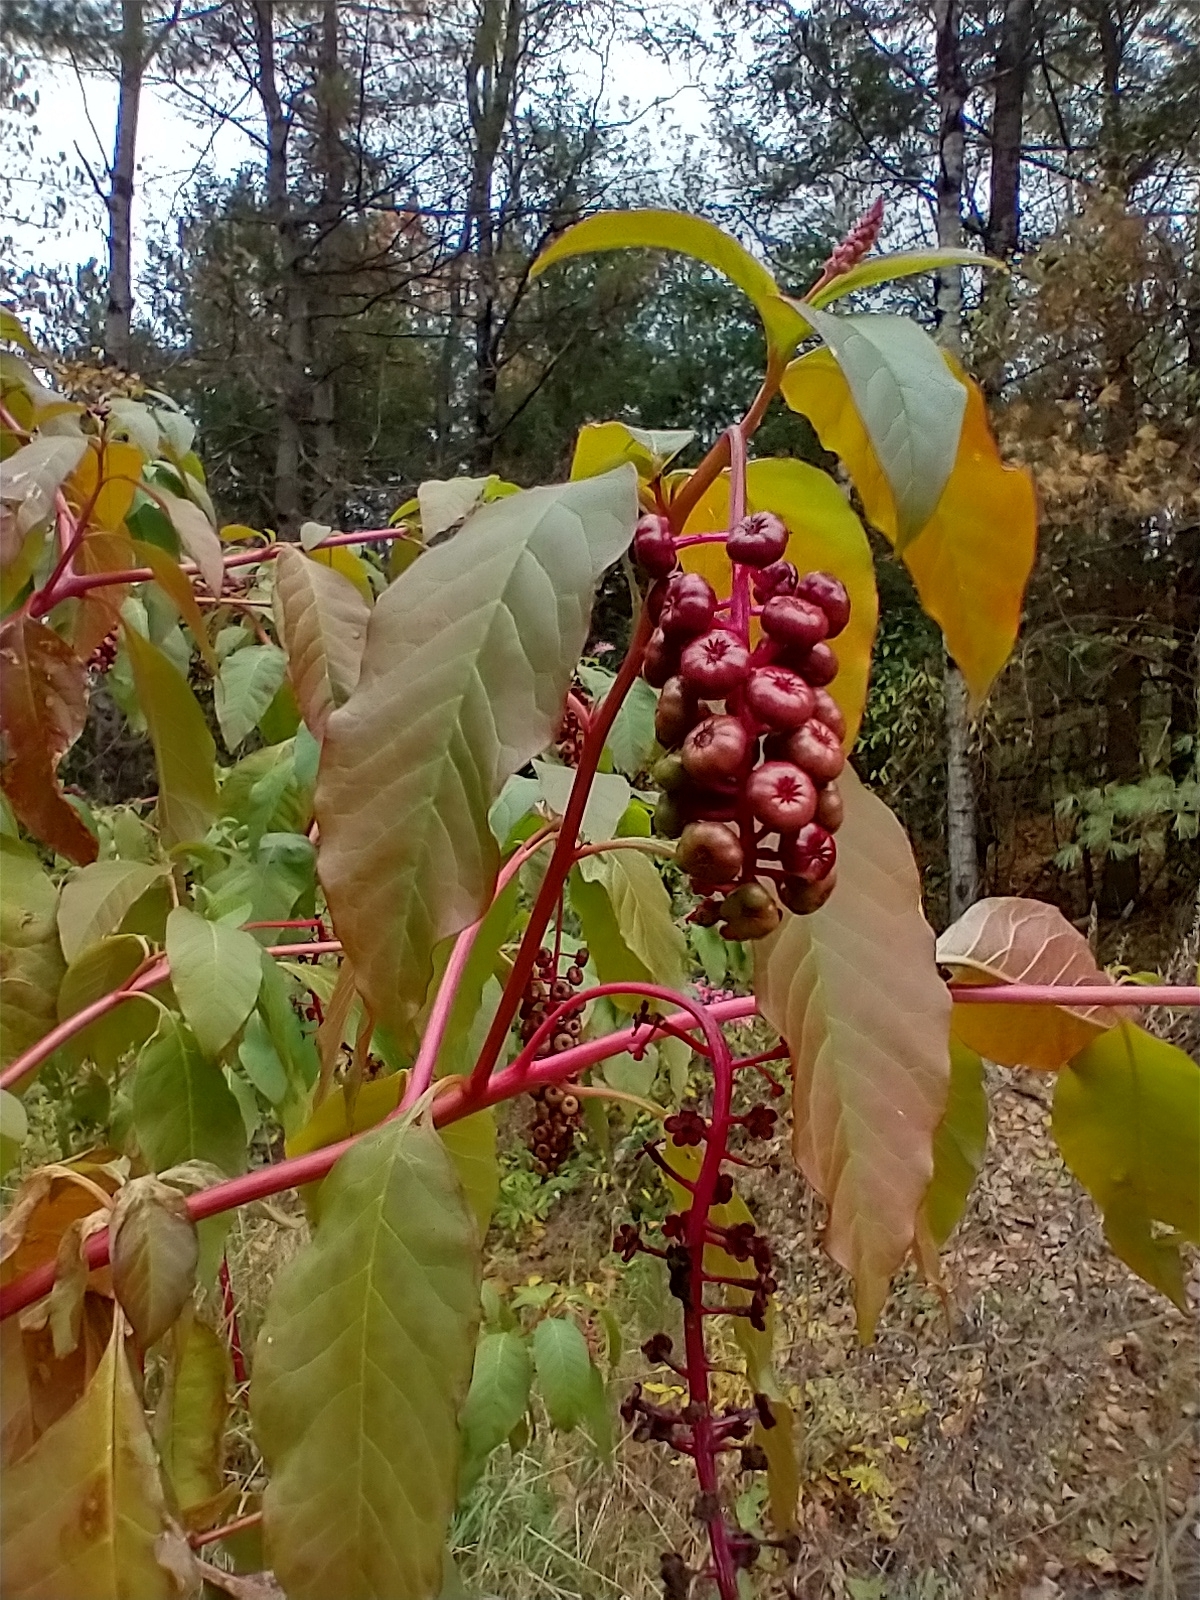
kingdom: Plantae
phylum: Tracheophyta
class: Magnoliopsida
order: Caryophyllales
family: Phytolaccaceae
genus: Phytolacca
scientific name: Phytolacca americana
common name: American pokeweed
